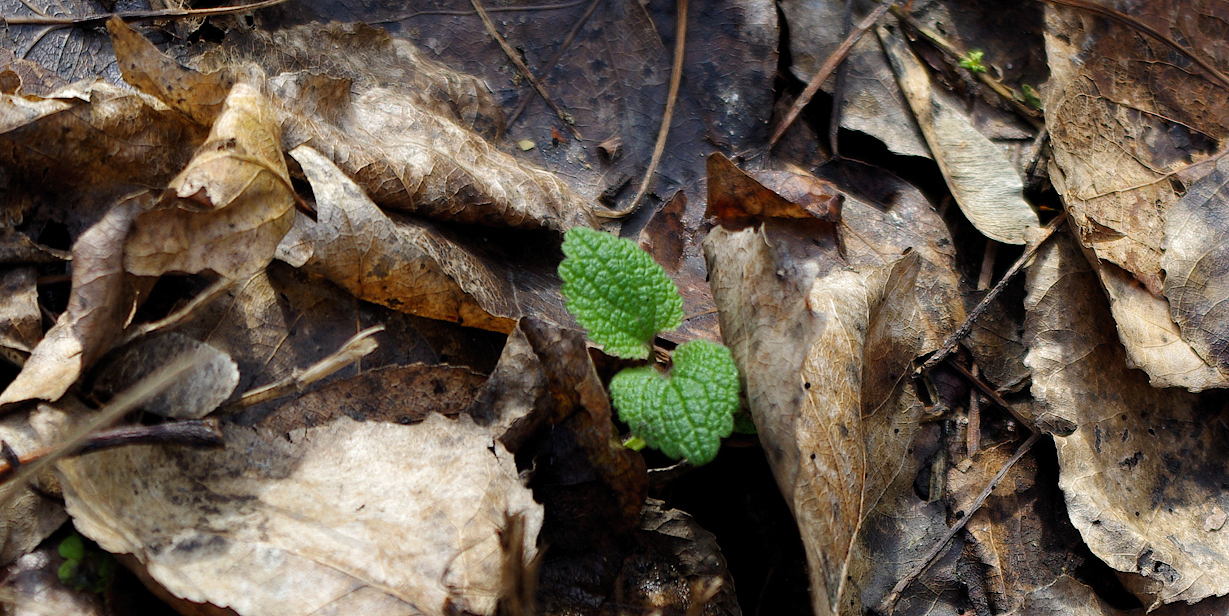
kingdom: Plantae
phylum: Tracheophyta
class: Magnoliopsida
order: Lamiales
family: Lamiaceae
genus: Lamium
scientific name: Lamium album
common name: White dead-nettle
